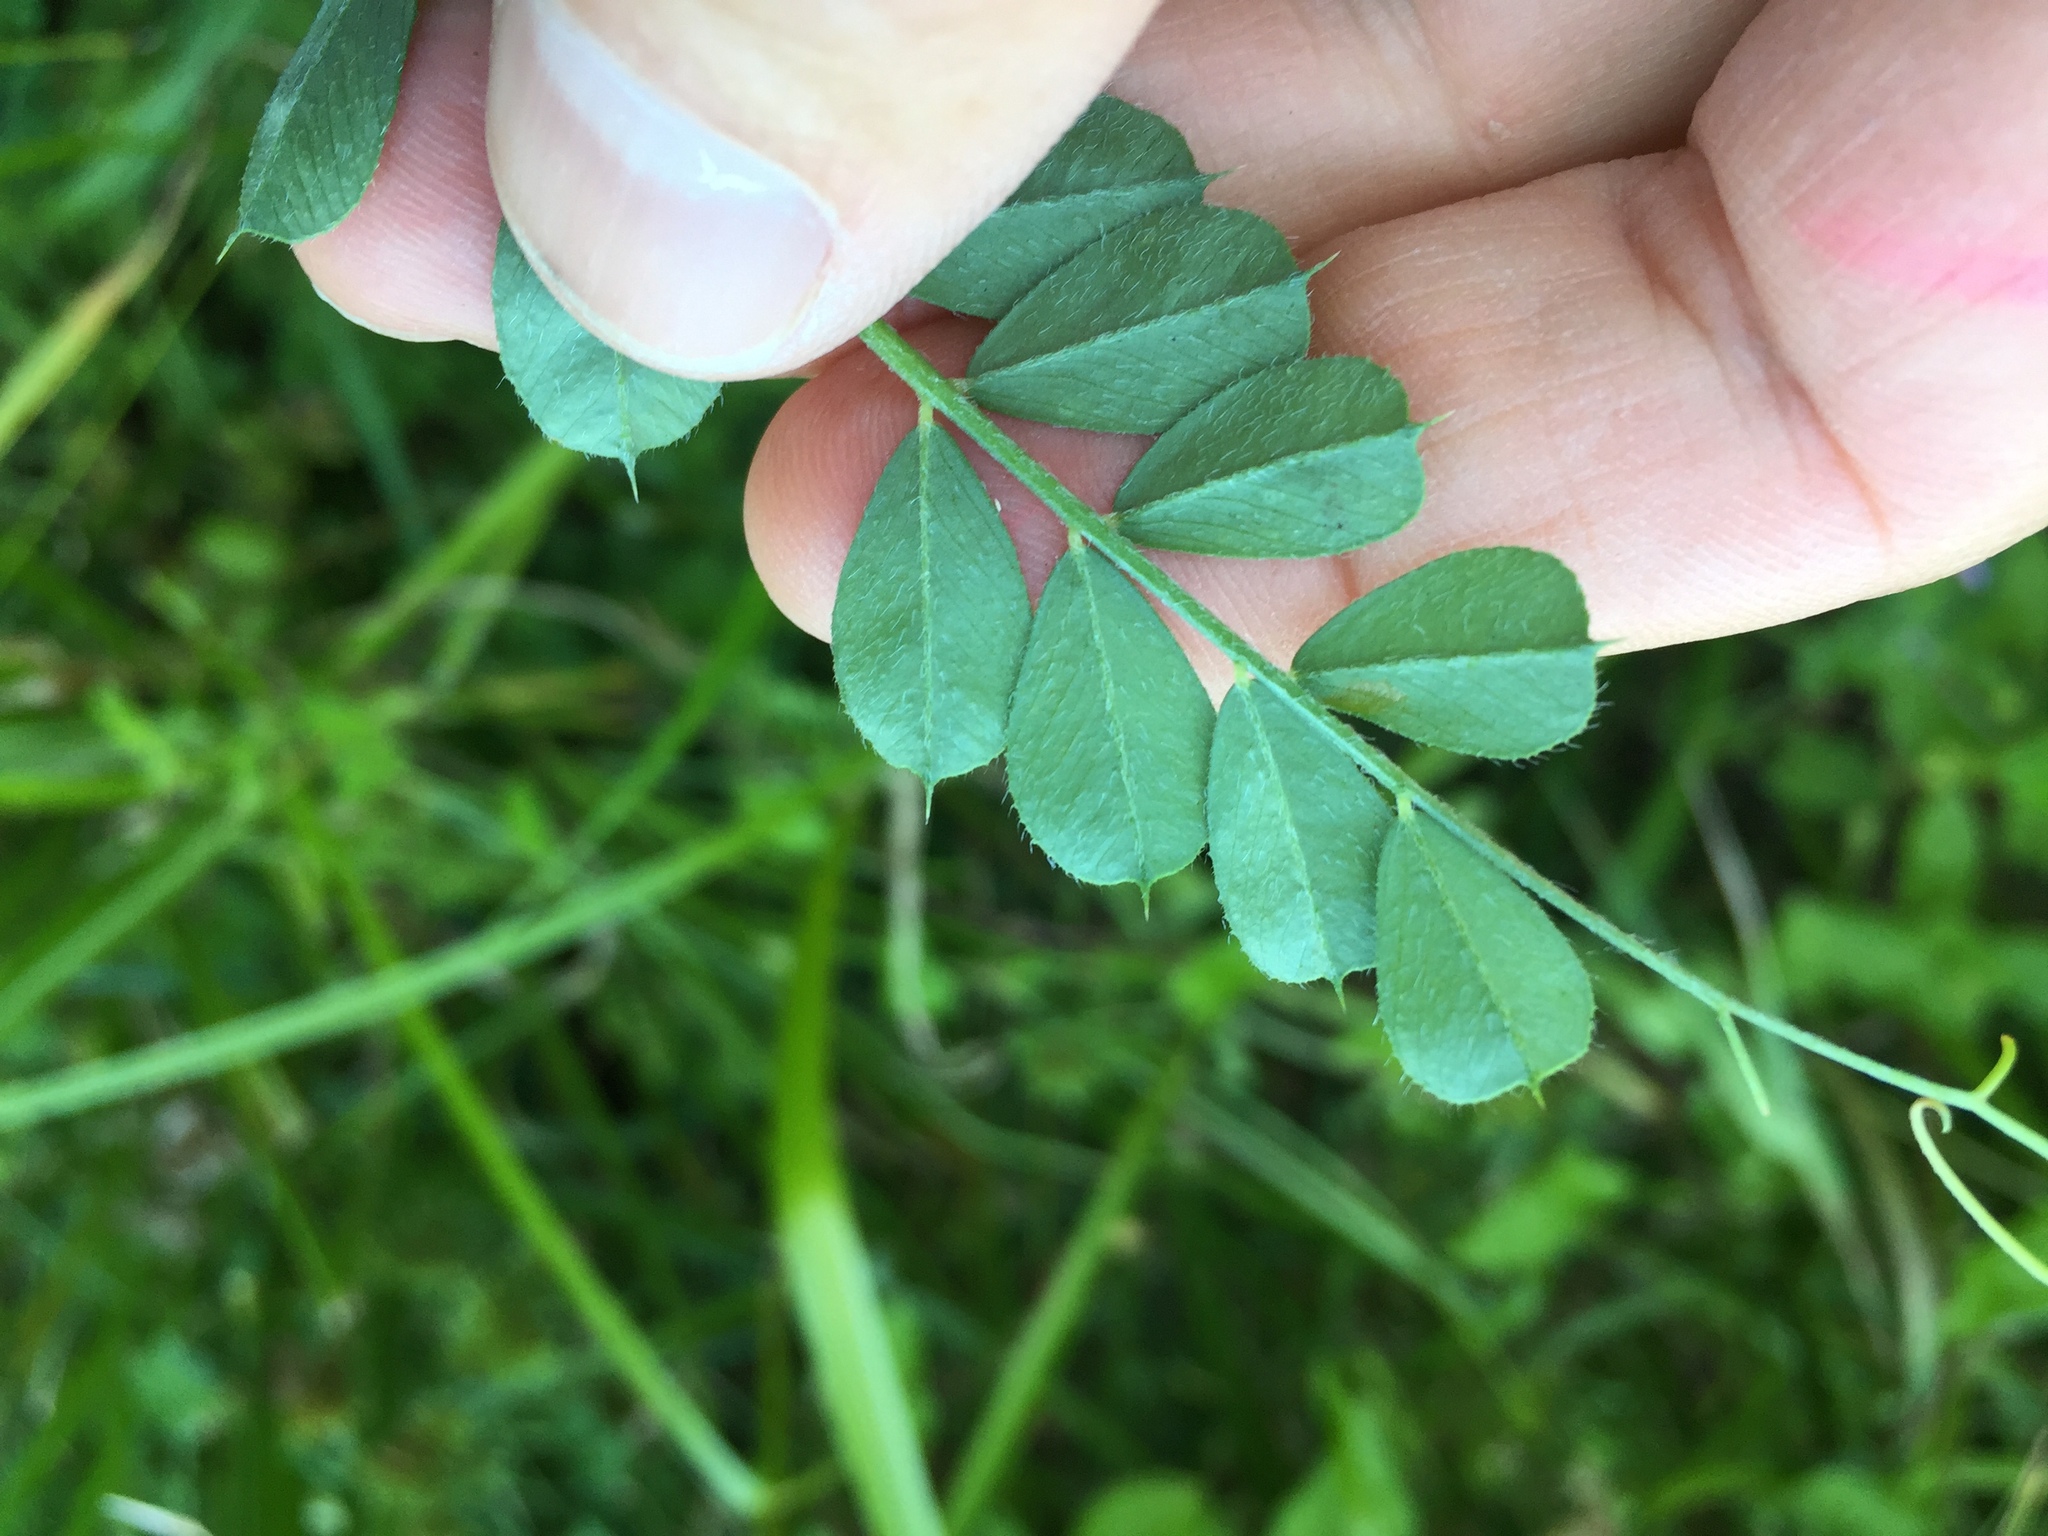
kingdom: Plantae
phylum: Tracheophyta
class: Magnoliopsida
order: Fabales
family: Fabaceae
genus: Vicia
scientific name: Vicia sativa
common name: Garden vetch
